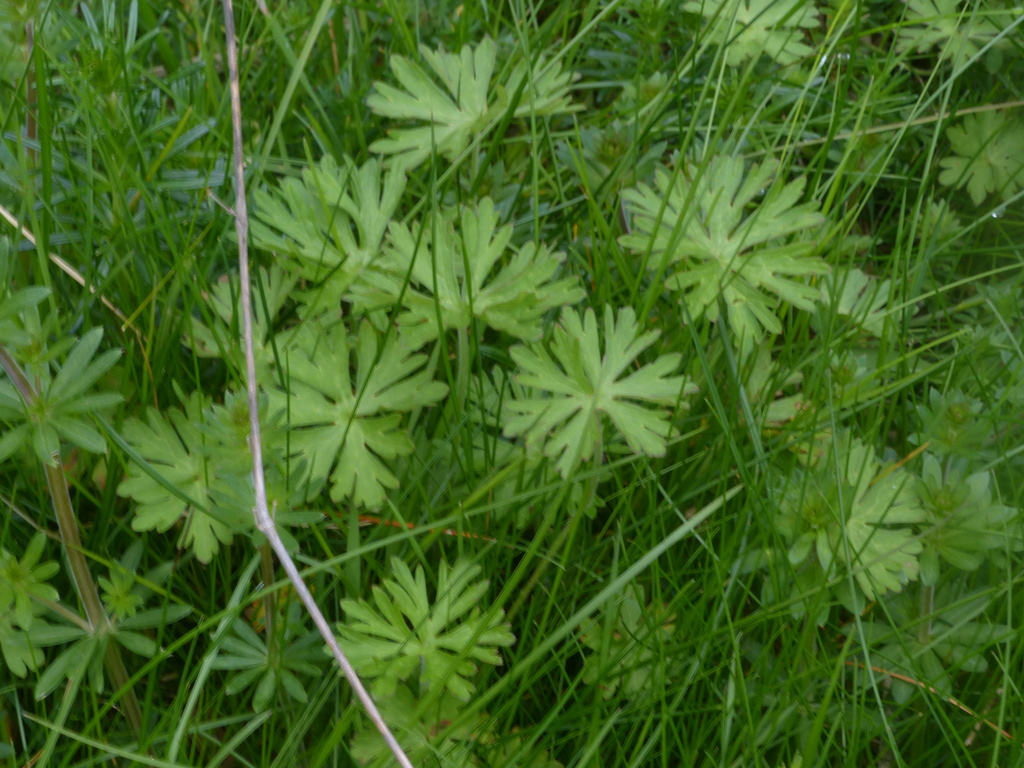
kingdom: Plantae
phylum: Tracheophyta
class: Magnoliopsida
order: Geraniales
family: Geraniaceae
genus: Geranium
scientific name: Geranium dissectum
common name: Cut-leaved crane's-bill
